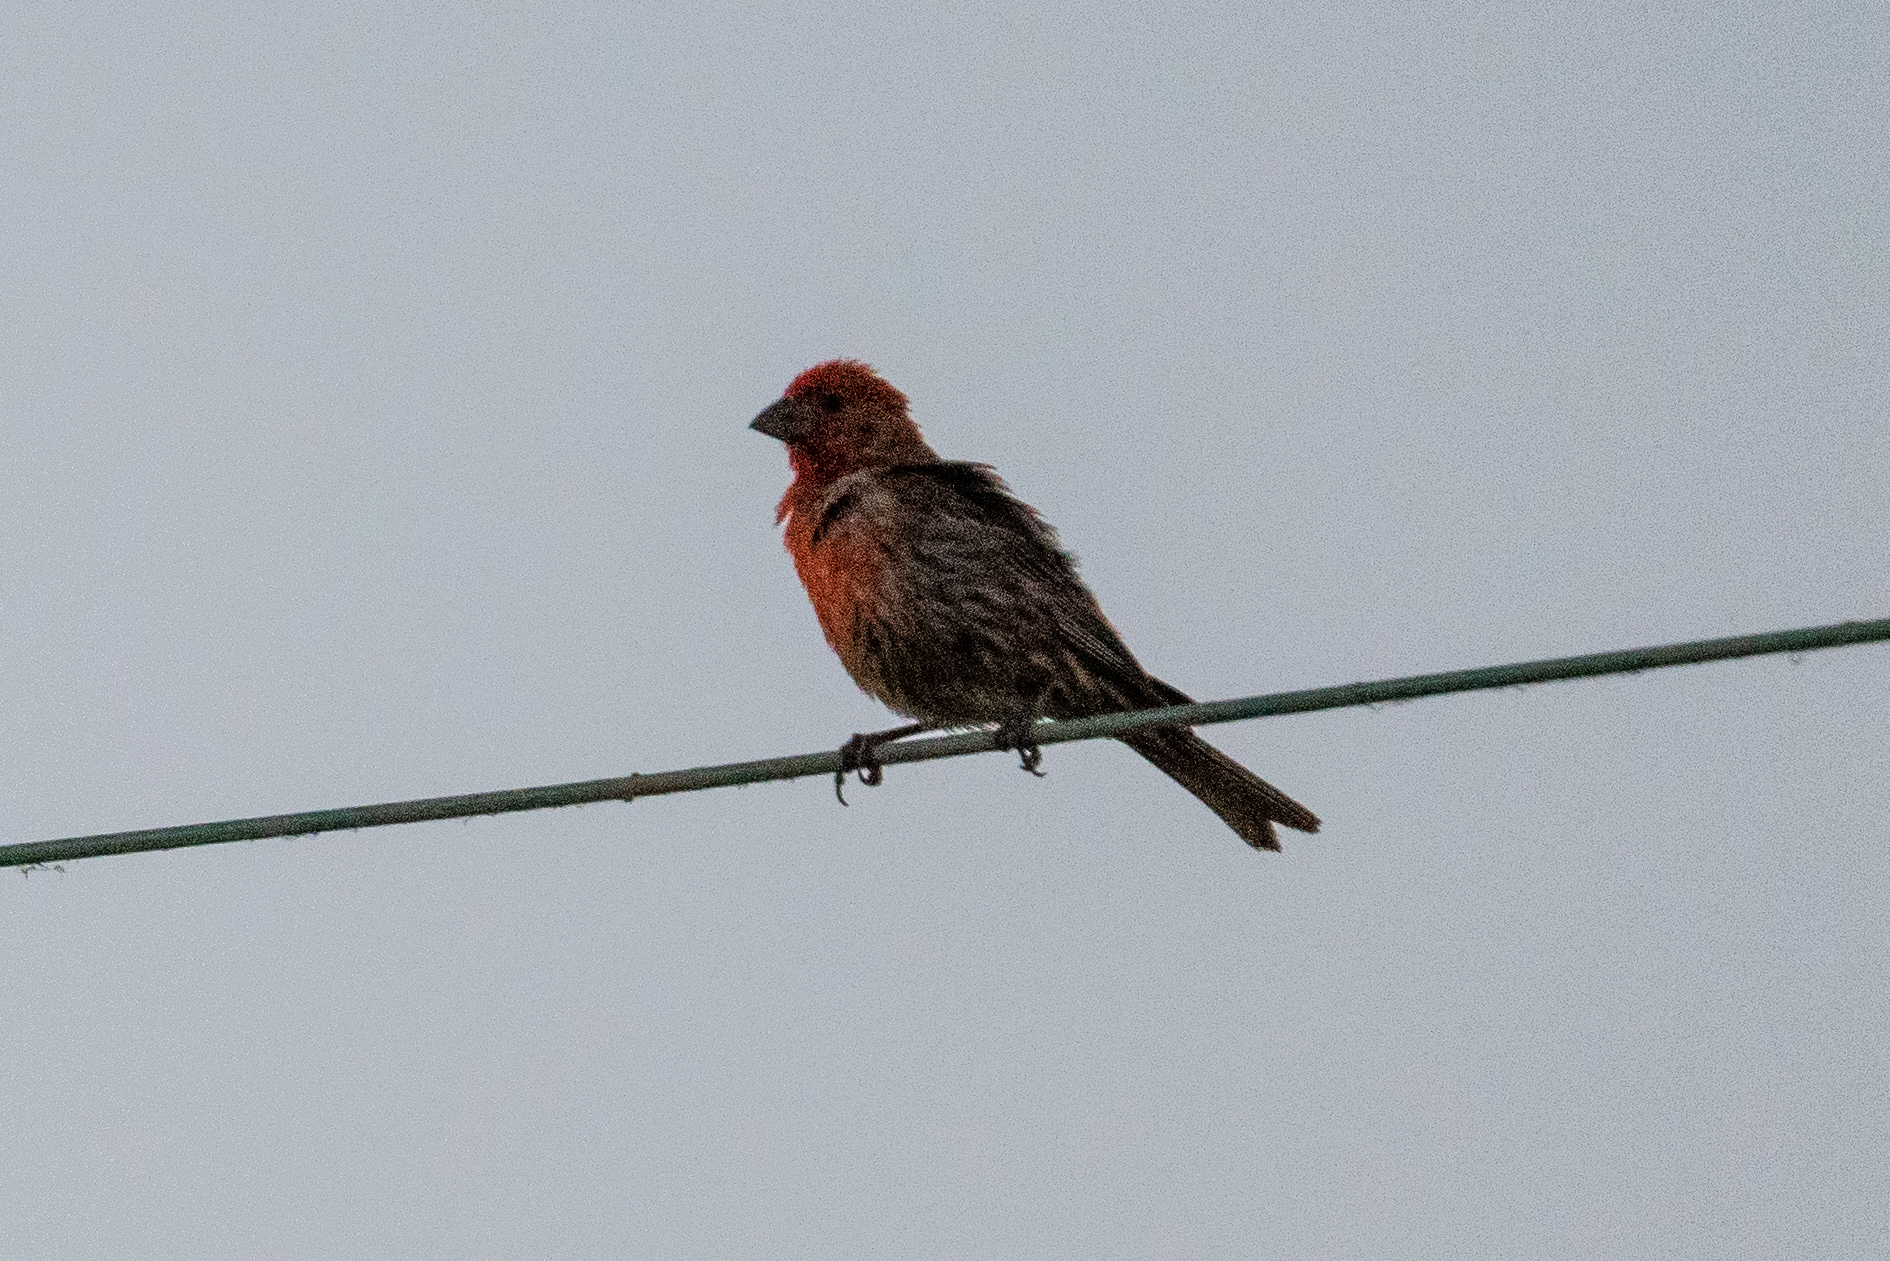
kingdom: Animalia
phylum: Chordata
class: Aves
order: Passeriformes
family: Fringillidae
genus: Haemorhous
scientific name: Haemorhous mexicanus
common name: House finch
